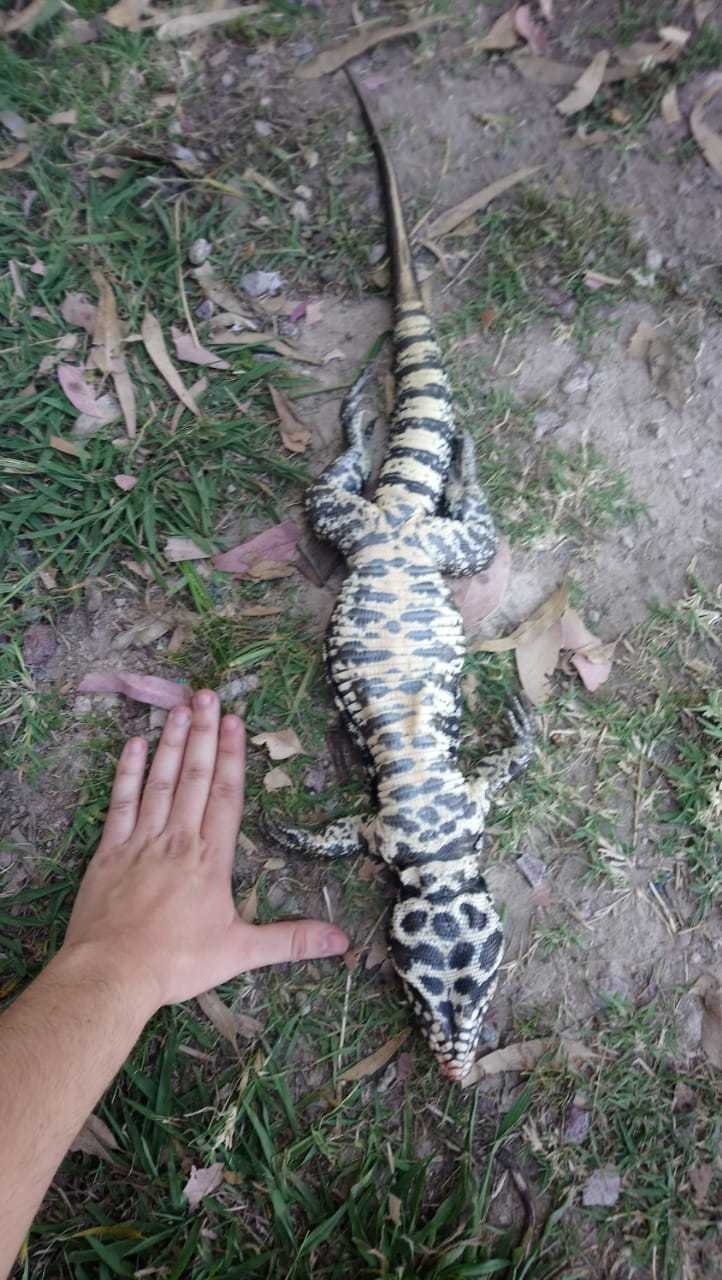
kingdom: Animalia
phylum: Chordata
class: Squamata
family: Teiidae
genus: Salvator
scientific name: Salvator merianae
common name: Argentine black and white tegu
